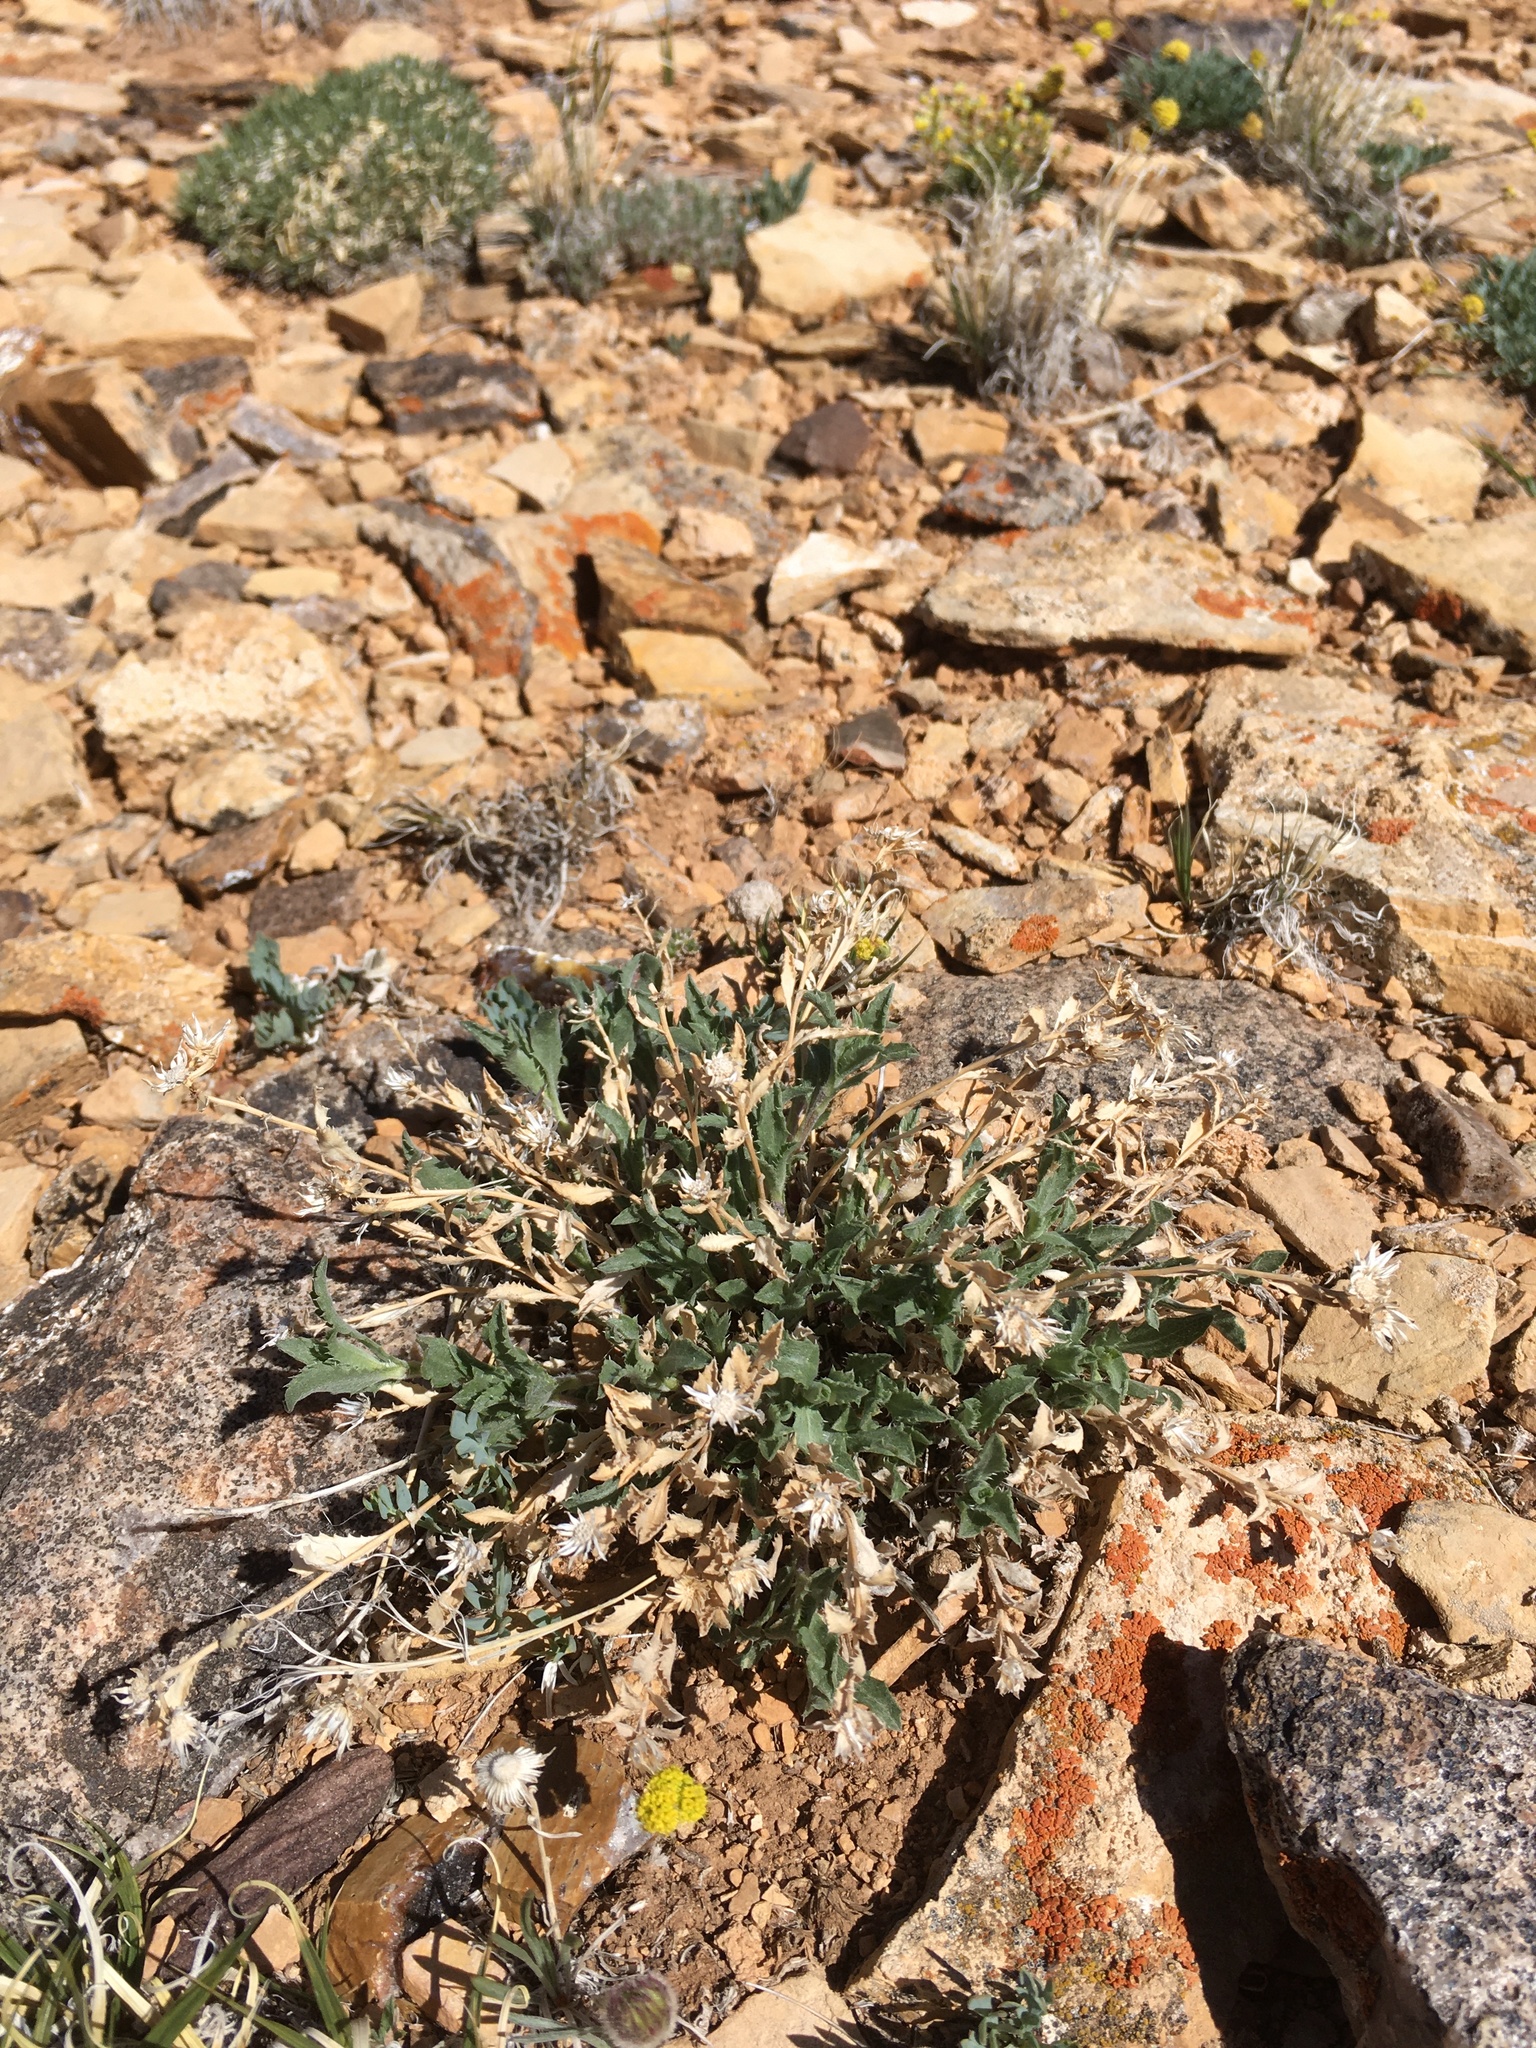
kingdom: Plantae
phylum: Tracheophyta
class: Magnoliopsida
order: Asterales
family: Asteraceae
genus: Xanthisma
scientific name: Xanthisma grindelioides
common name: Goldenweed
